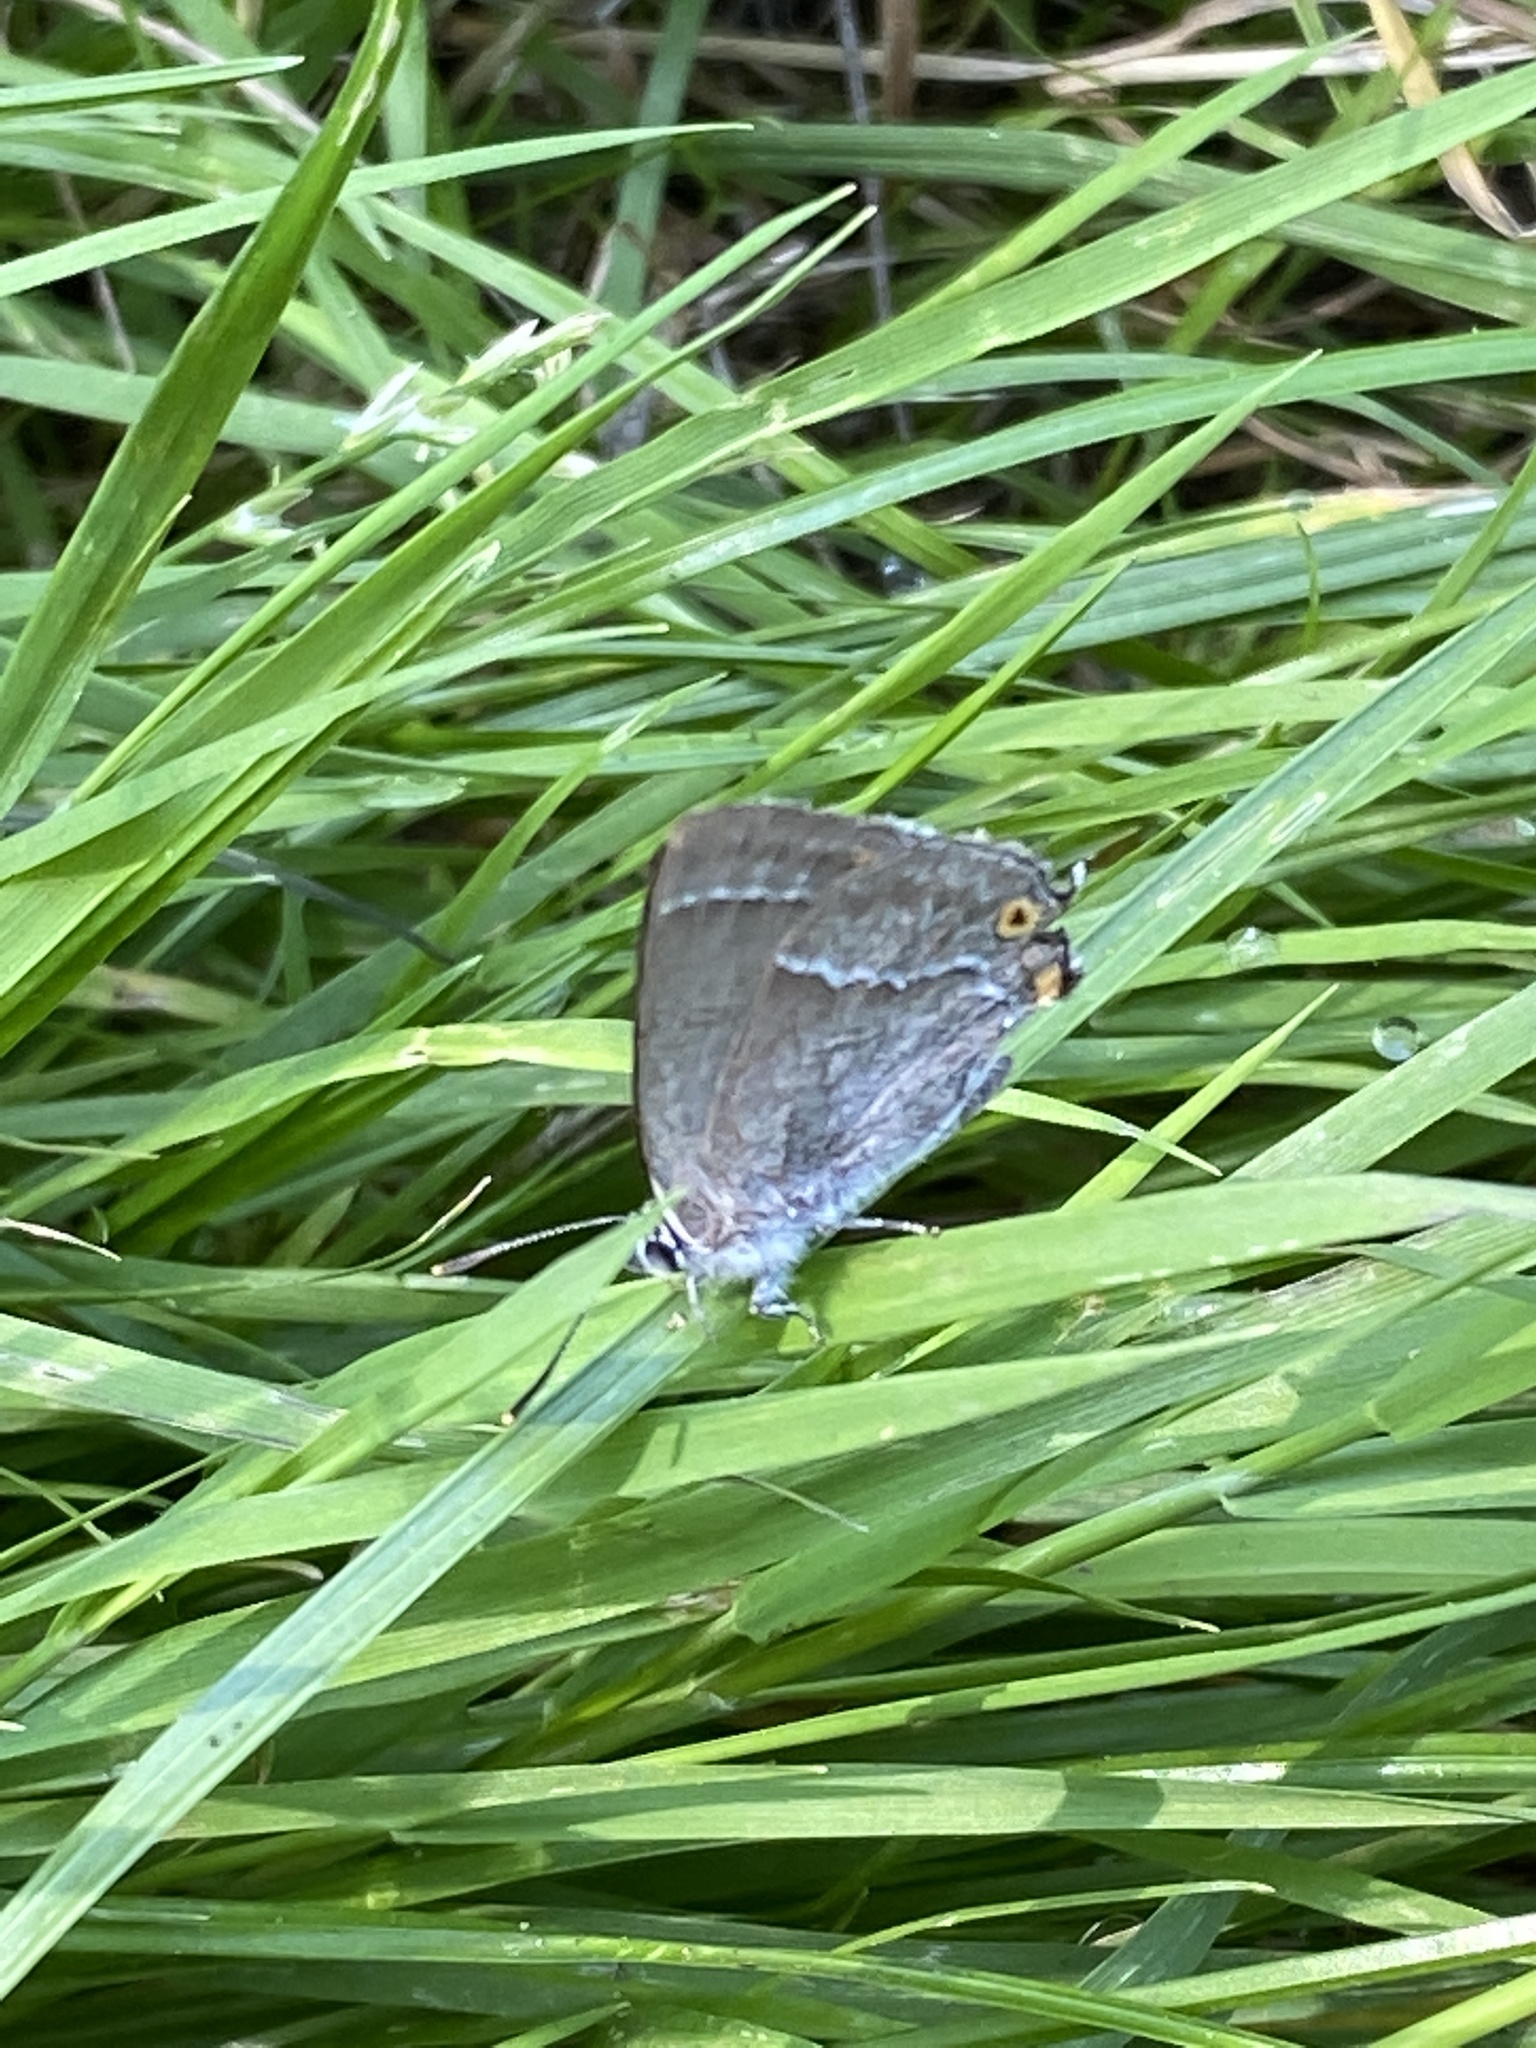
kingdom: Animalia
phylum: Arthropoda
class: Insecta
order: Lepidoptera
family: Lycaenidae
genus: Quercusia
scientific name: Quercusia quercus
